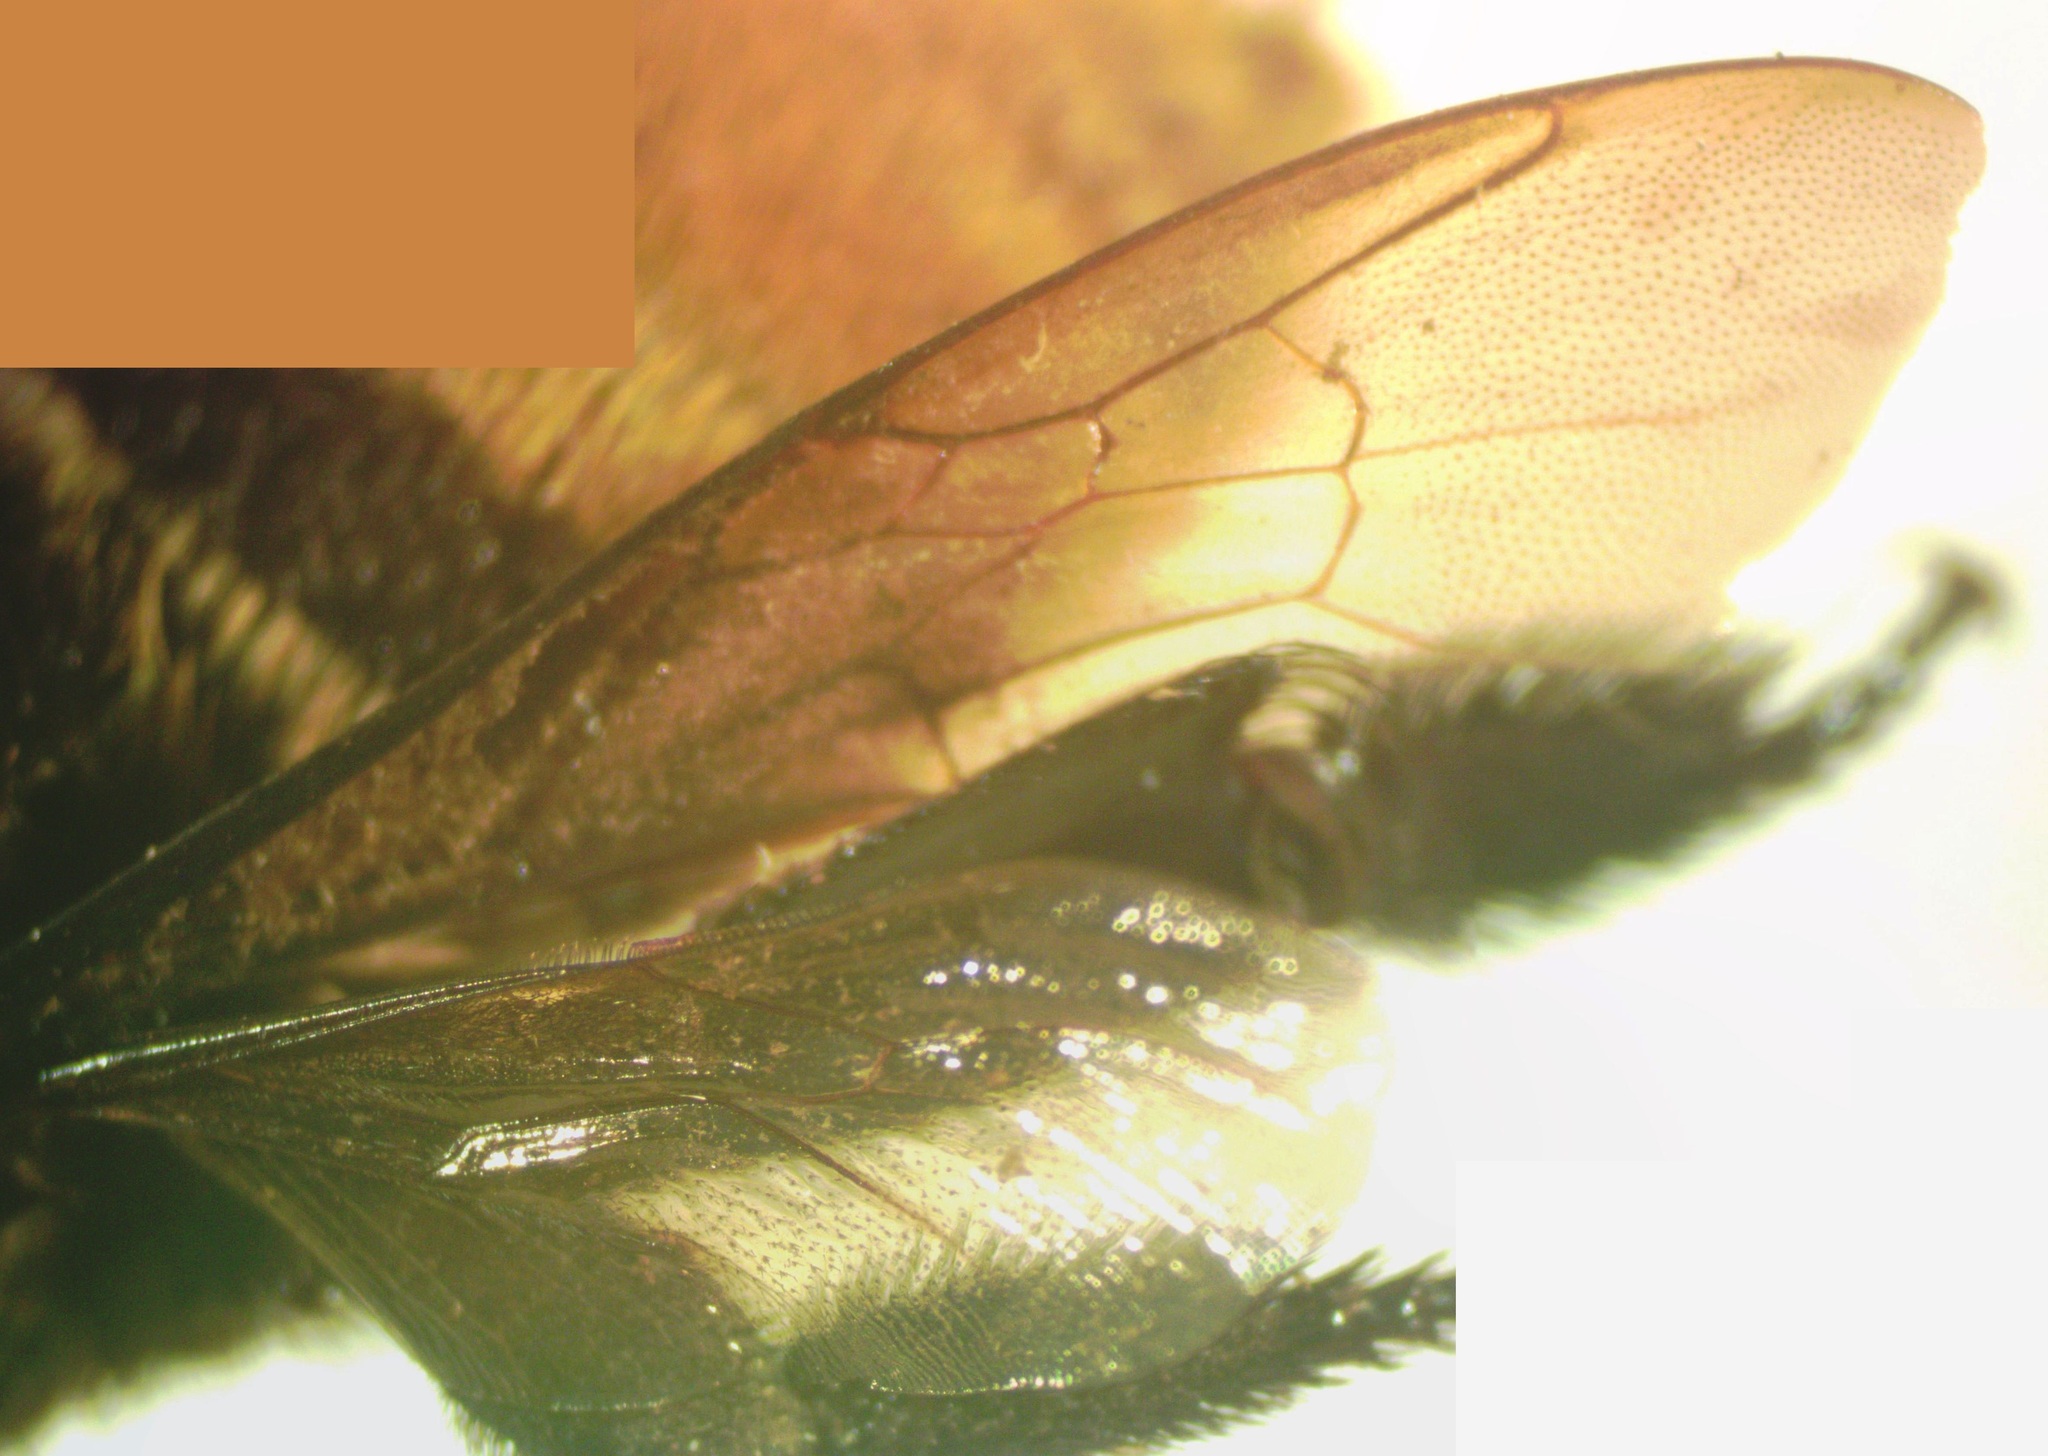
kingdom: Animalia
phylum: Arthropoda
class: Insecta
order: Hymenoptera
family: Apidae
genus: Eulaema
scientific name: Eulaema cingulata
